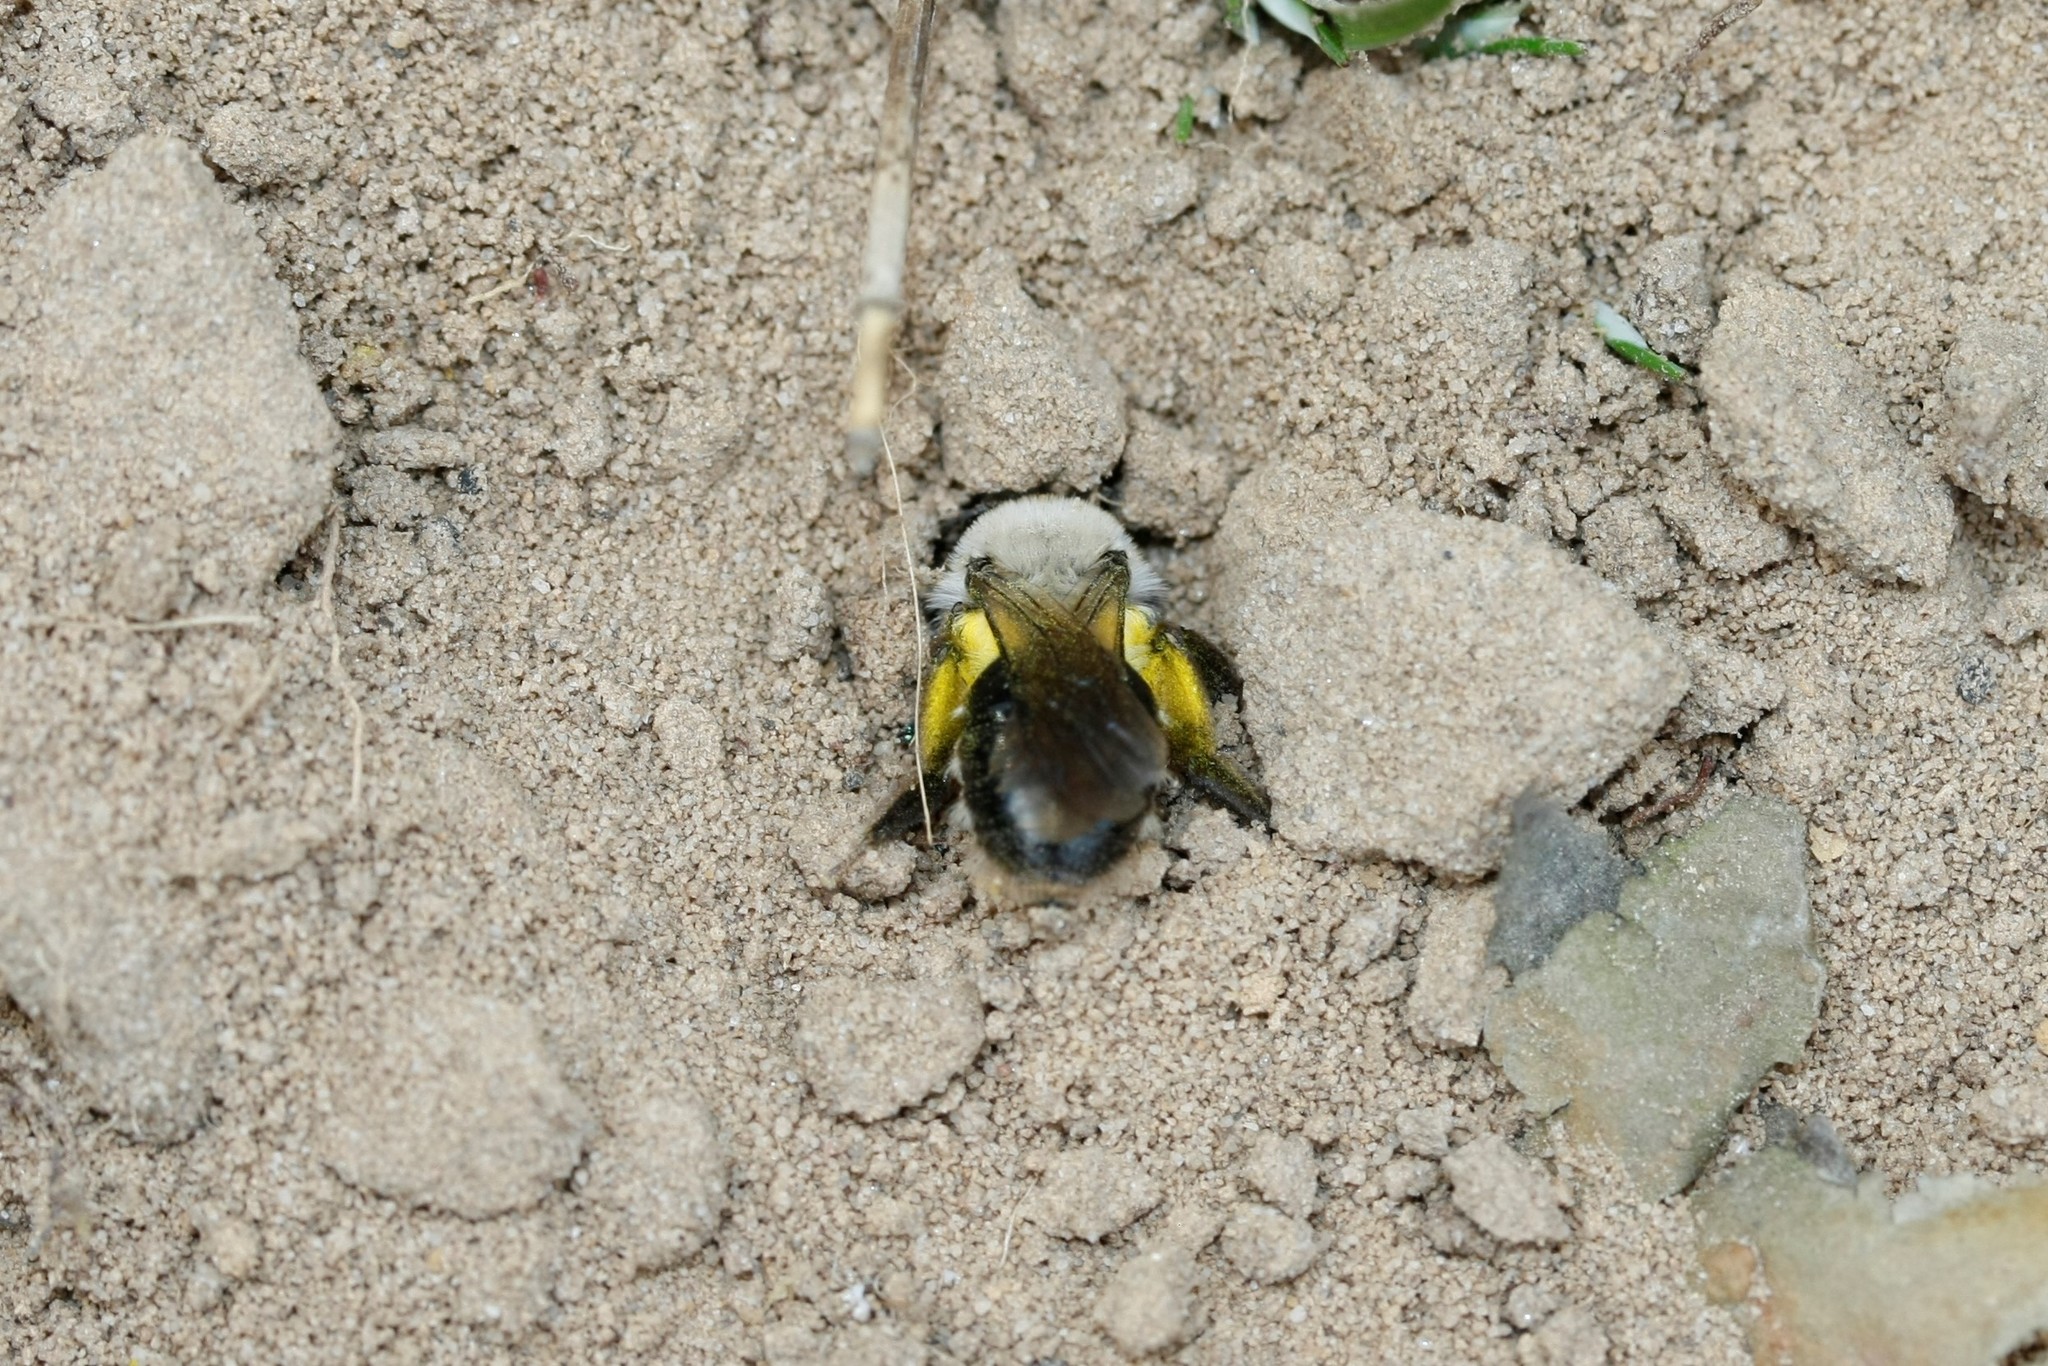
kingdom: Animalia
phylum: Arthropoda
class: Insecta
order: Hymenoptera
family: Andrenidae
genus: Andrena
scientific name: Andrena vaga
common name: Grey-backed mining bee
